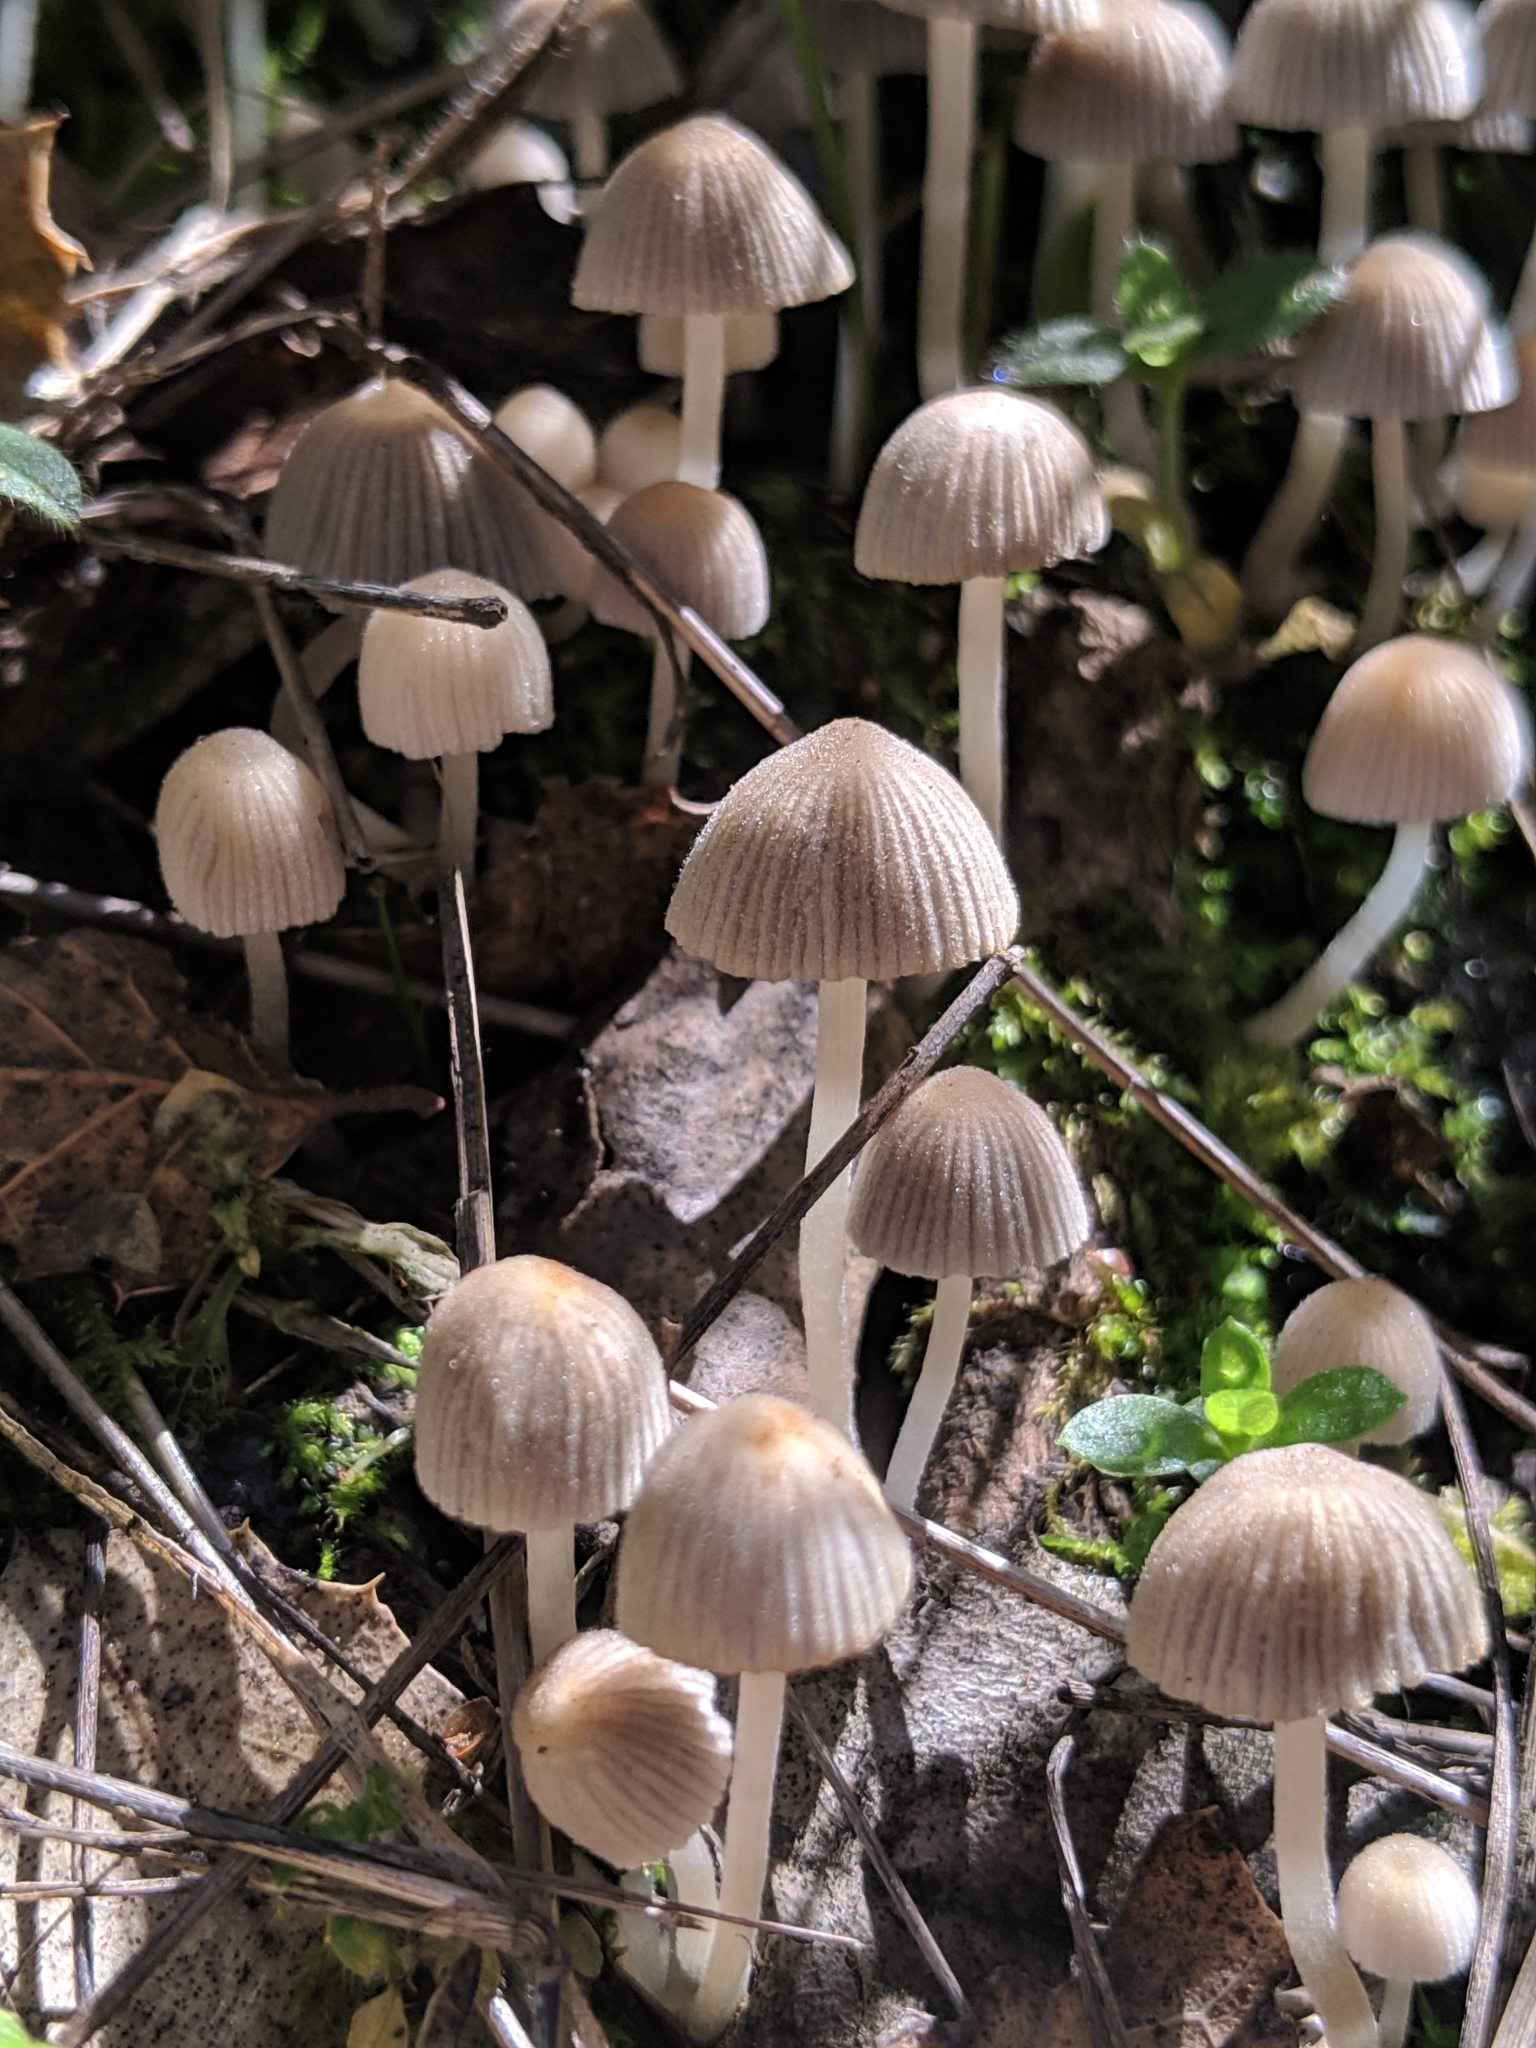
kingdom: Fungi
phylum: Basidiomycota
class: Agaricomycetes
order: Agaricales
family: Psathyrellaceae
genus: Coprinellus
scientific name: Coprinellus disseminatus
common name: Fairies' bonnets
